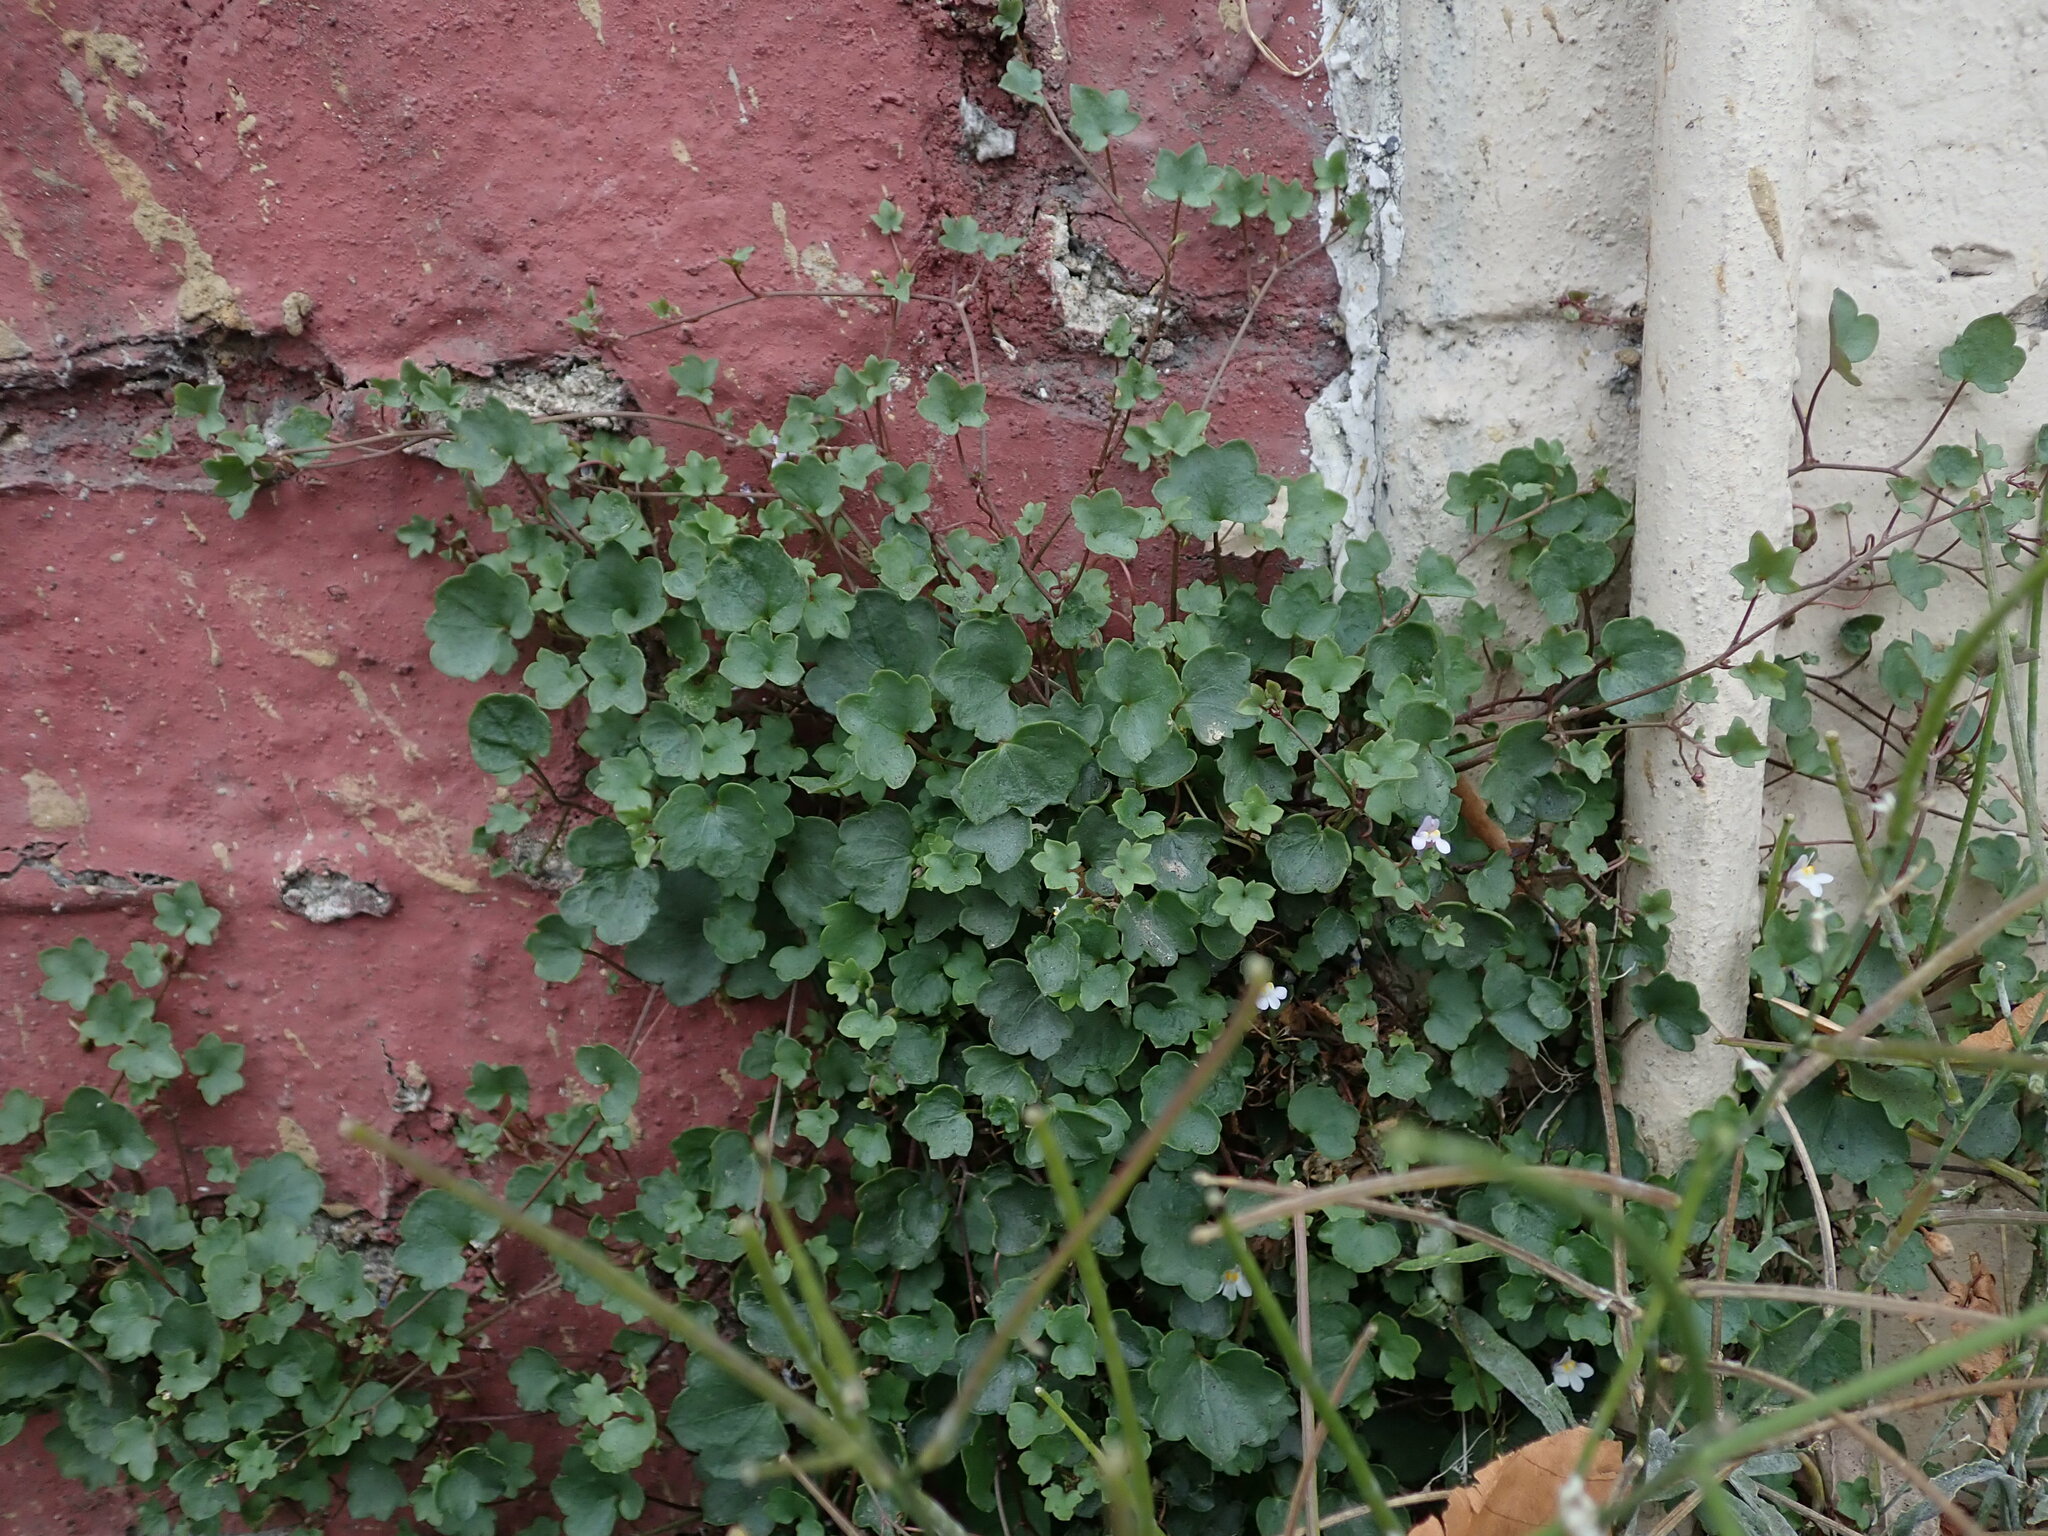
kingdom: Plantae
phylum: Tracheophyta
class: Magnoliopsida
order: Lamiales
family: Plantaginaceae
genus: Cymbalaria
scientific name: Cymbalaria muralis
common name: Ivy-leaved toadflax
